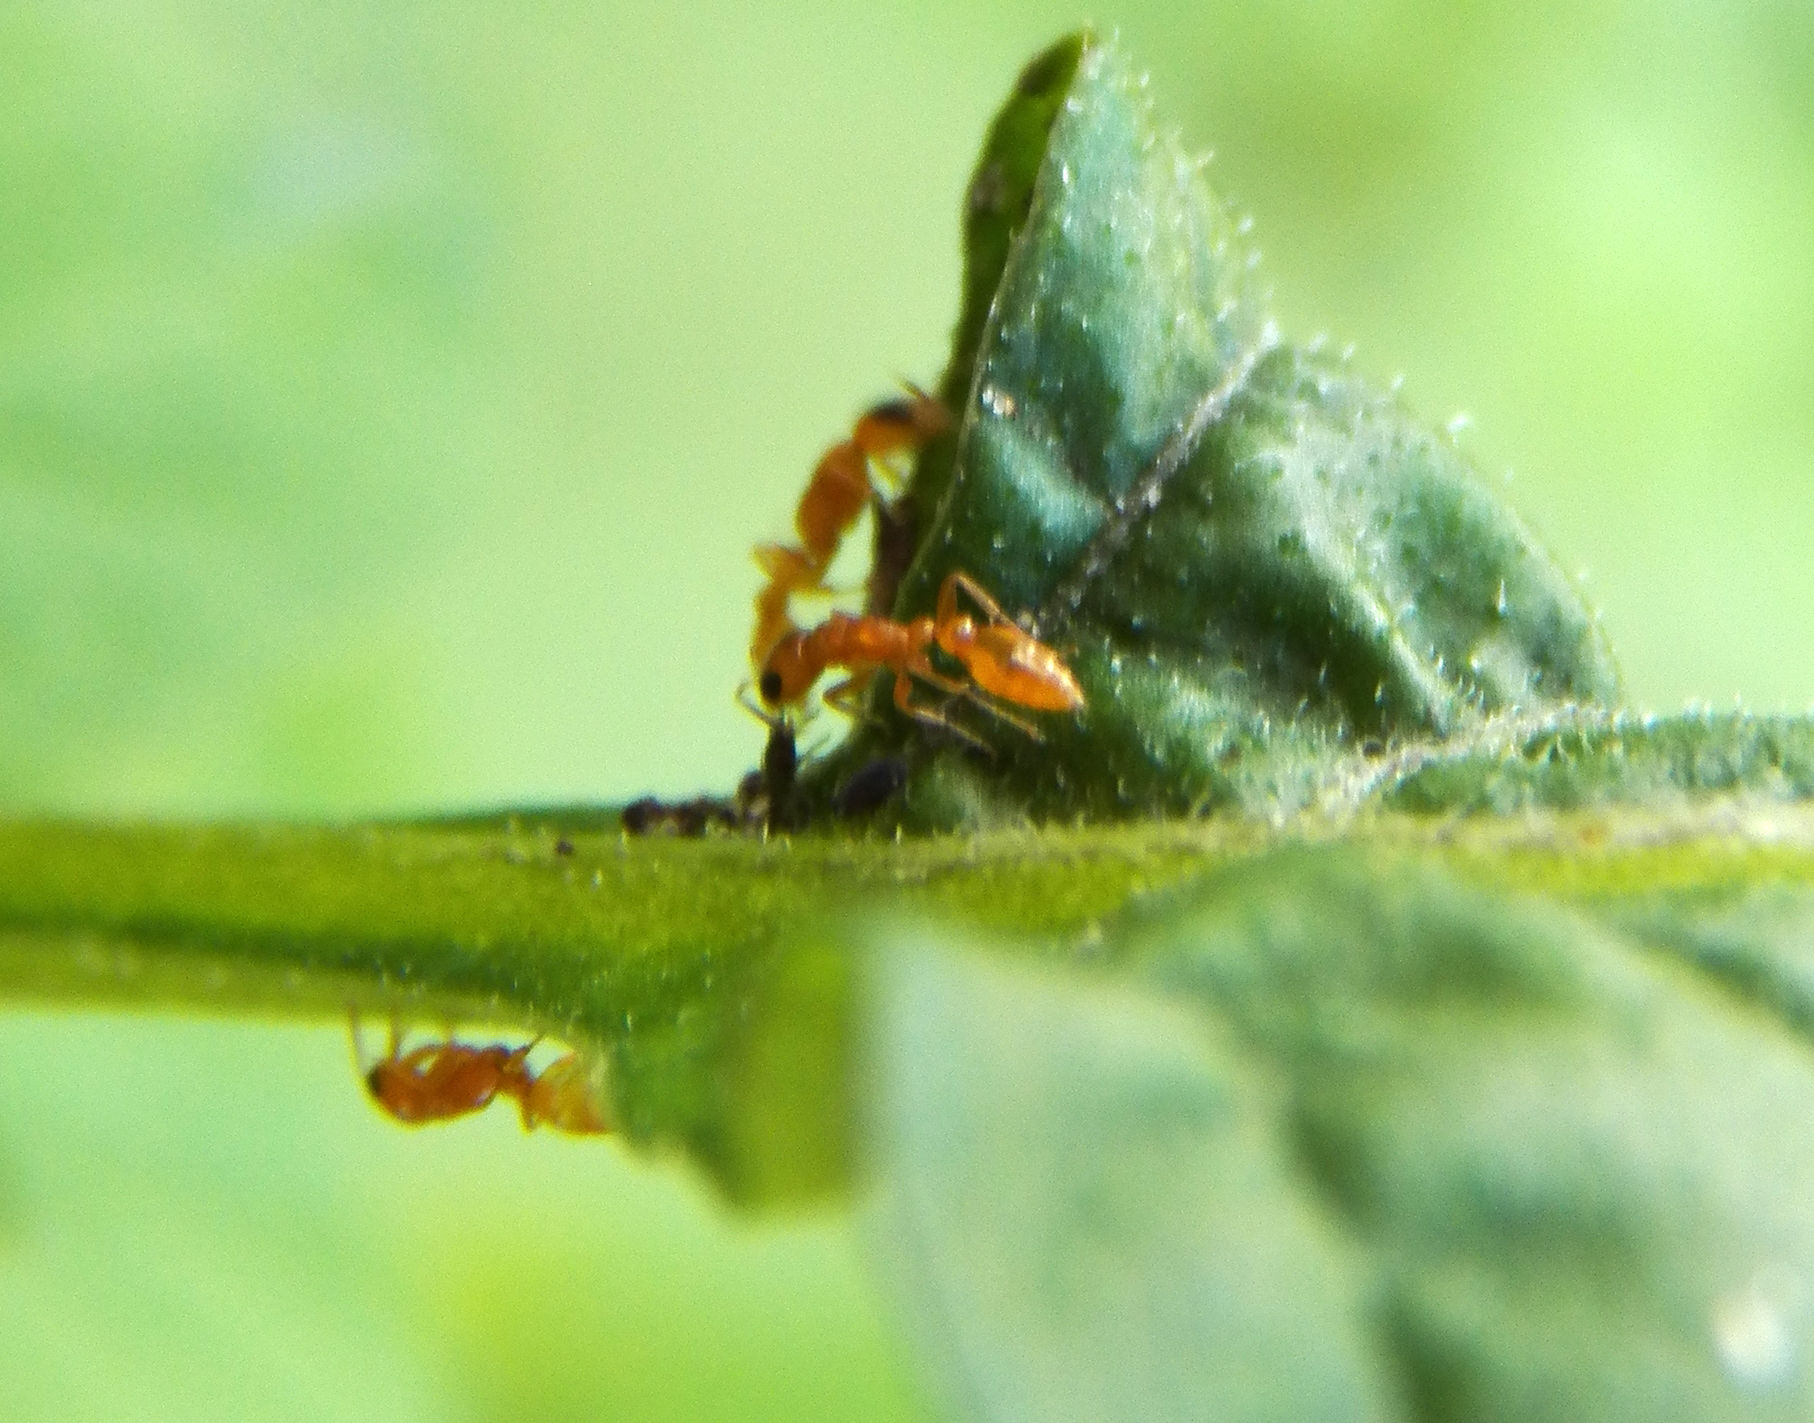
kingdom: Animalia
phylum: Arthropoda
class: Insecta
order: Hymenoptera
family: Formicidae
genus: Pseudomyrmex
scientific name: Pseudomyrmex pallidus
